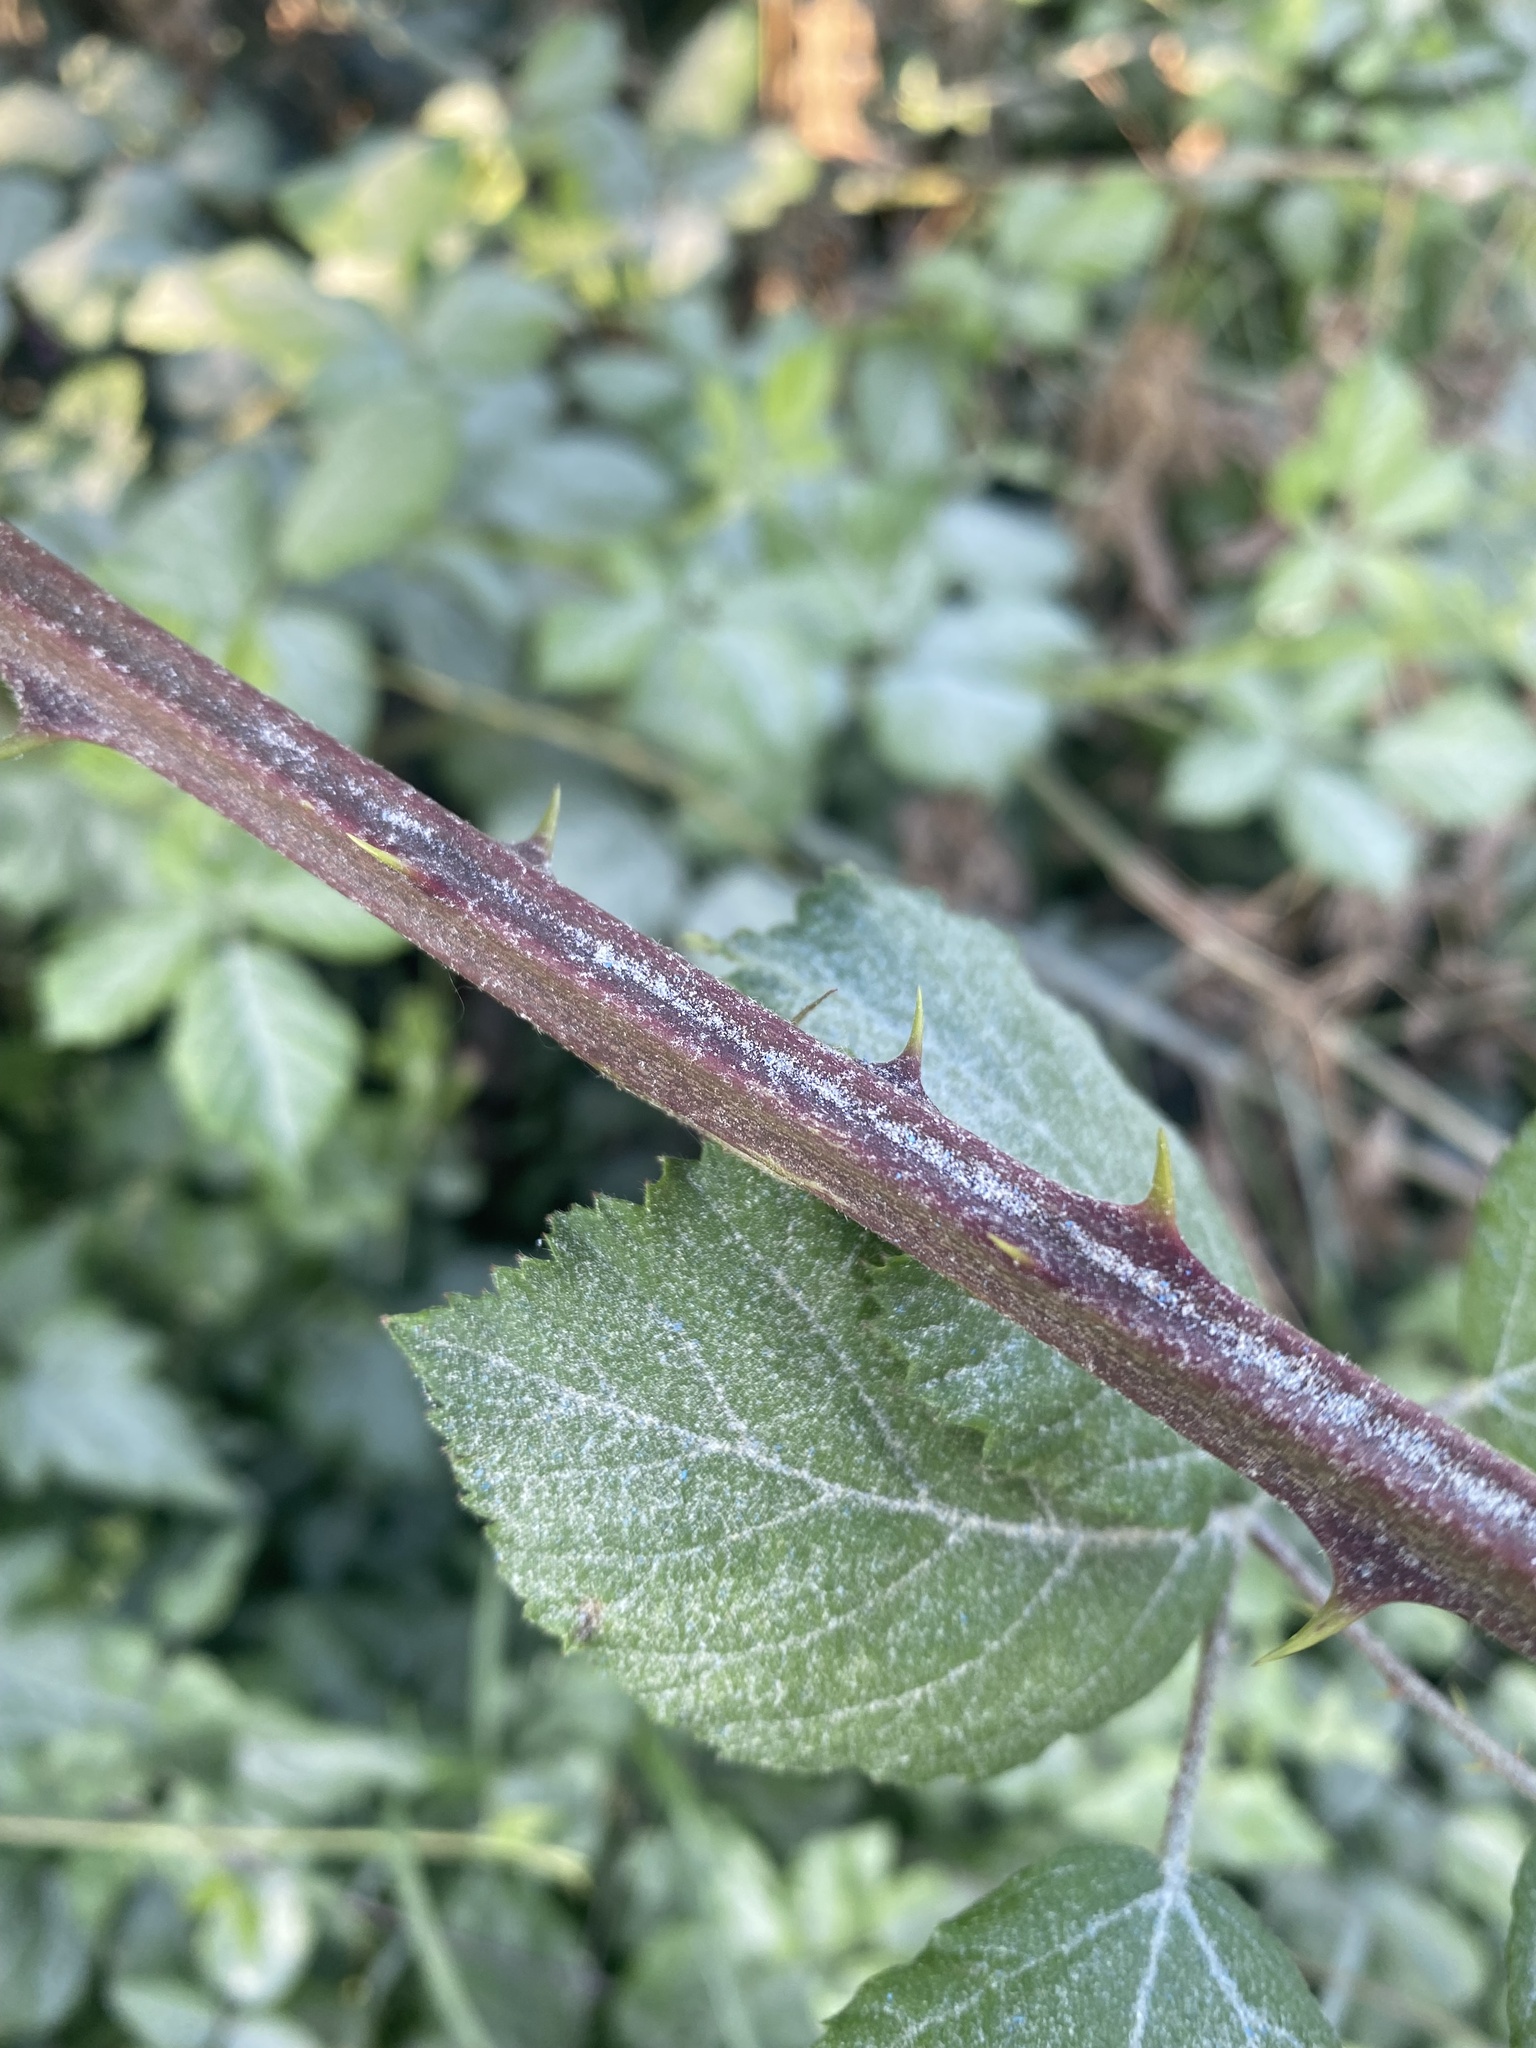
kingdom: Plantae
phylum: Tracheophyta
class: Magnoliopsida
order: Rosales
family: Rosaceae
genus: Rubus
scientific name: Rubus sanctus
